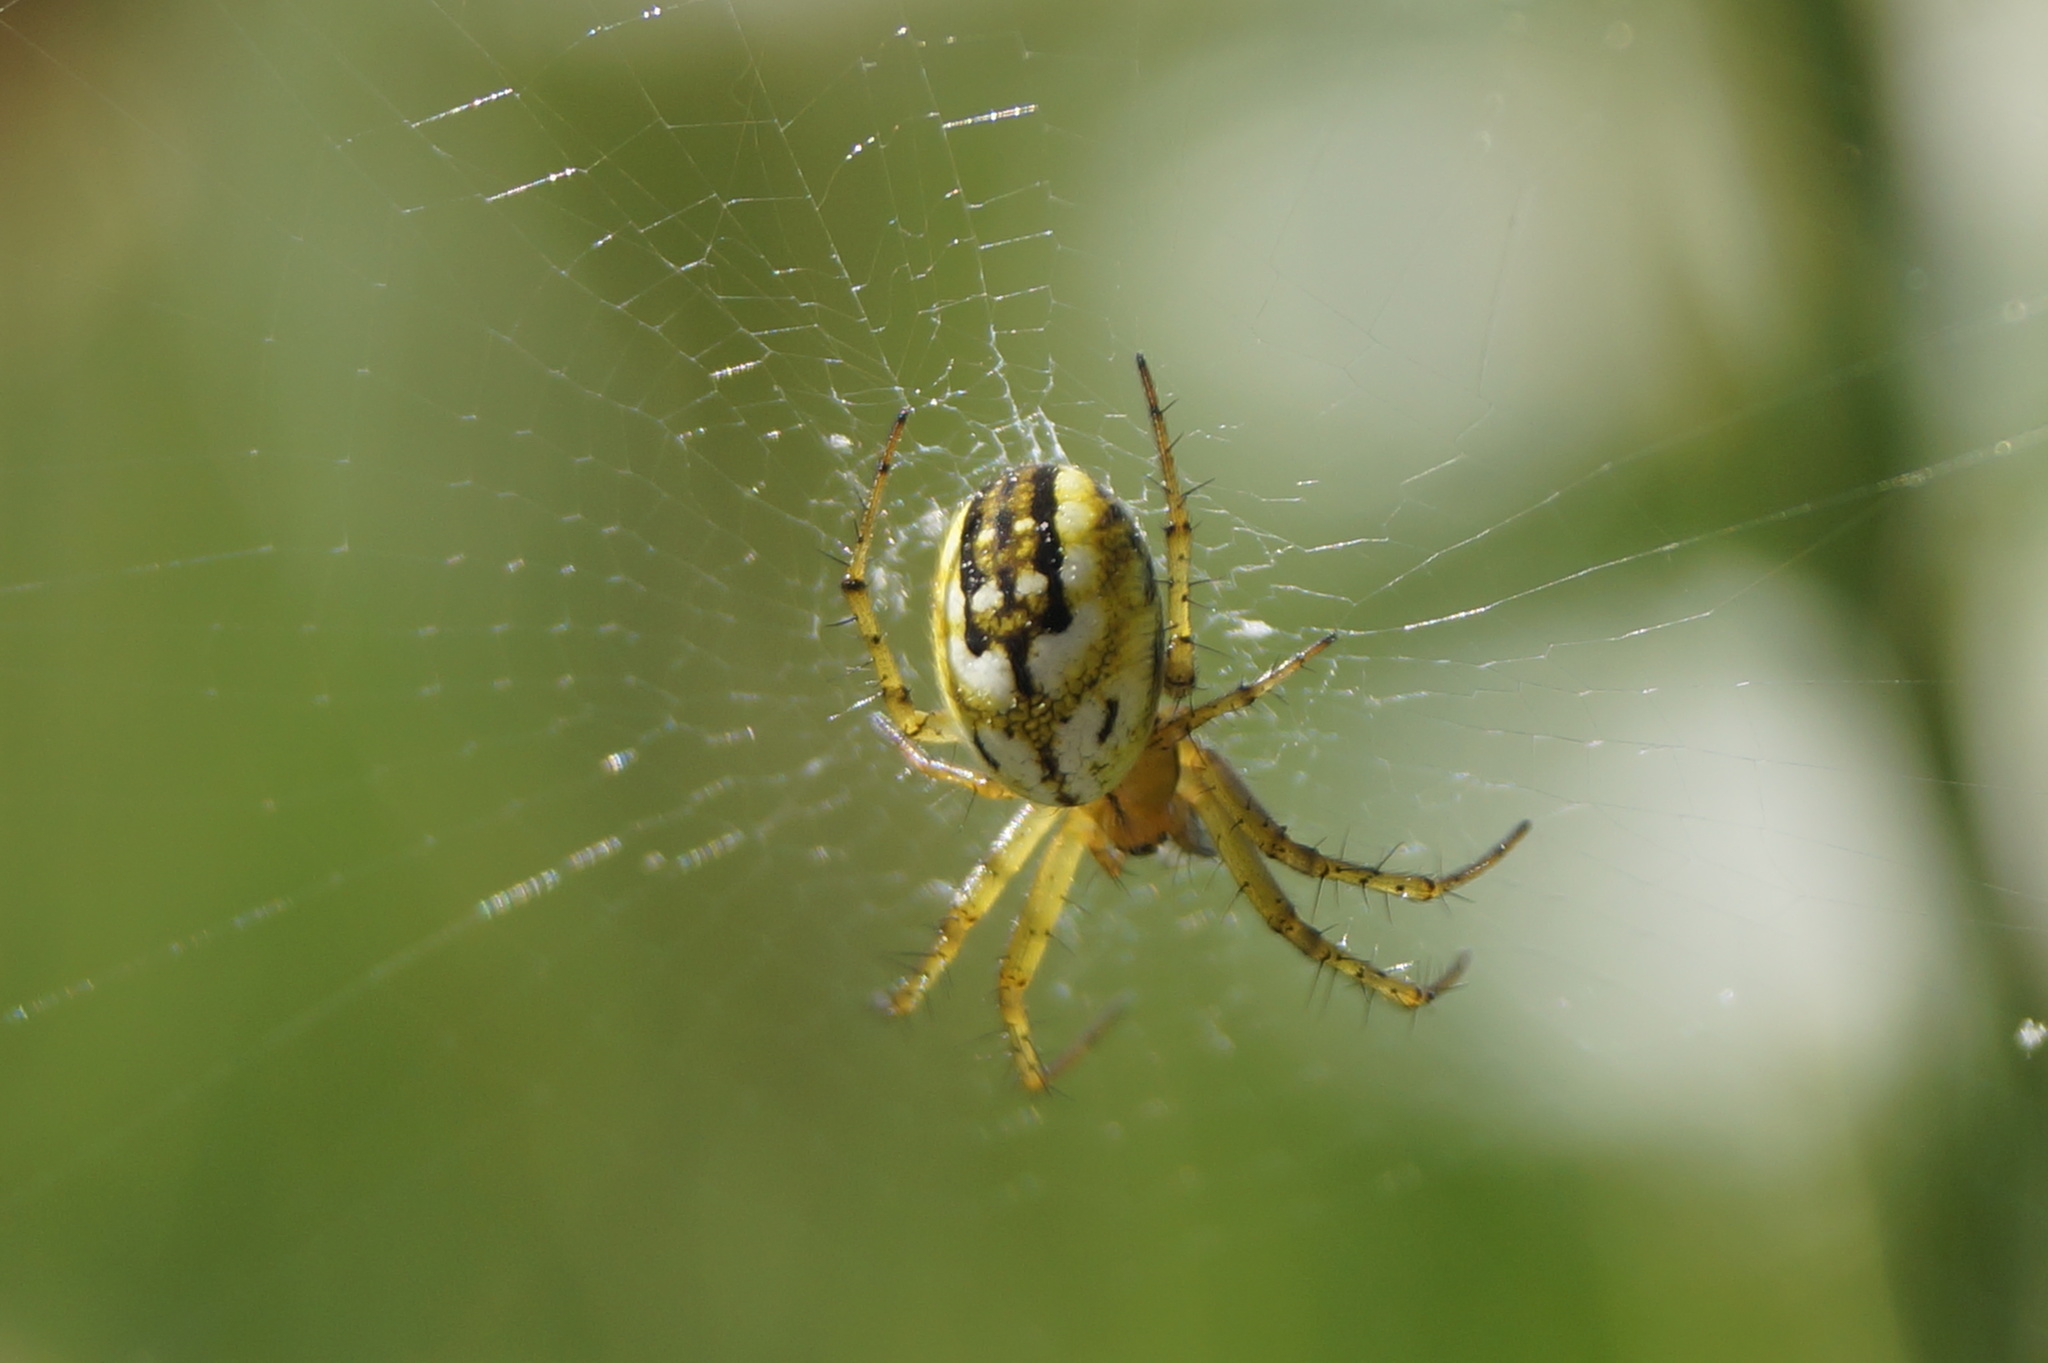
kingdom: Animalia
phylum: Arthropoda
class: Arachnida
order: Araneae
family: Araneidae
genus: Mangora
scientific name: Mangora acalypha
